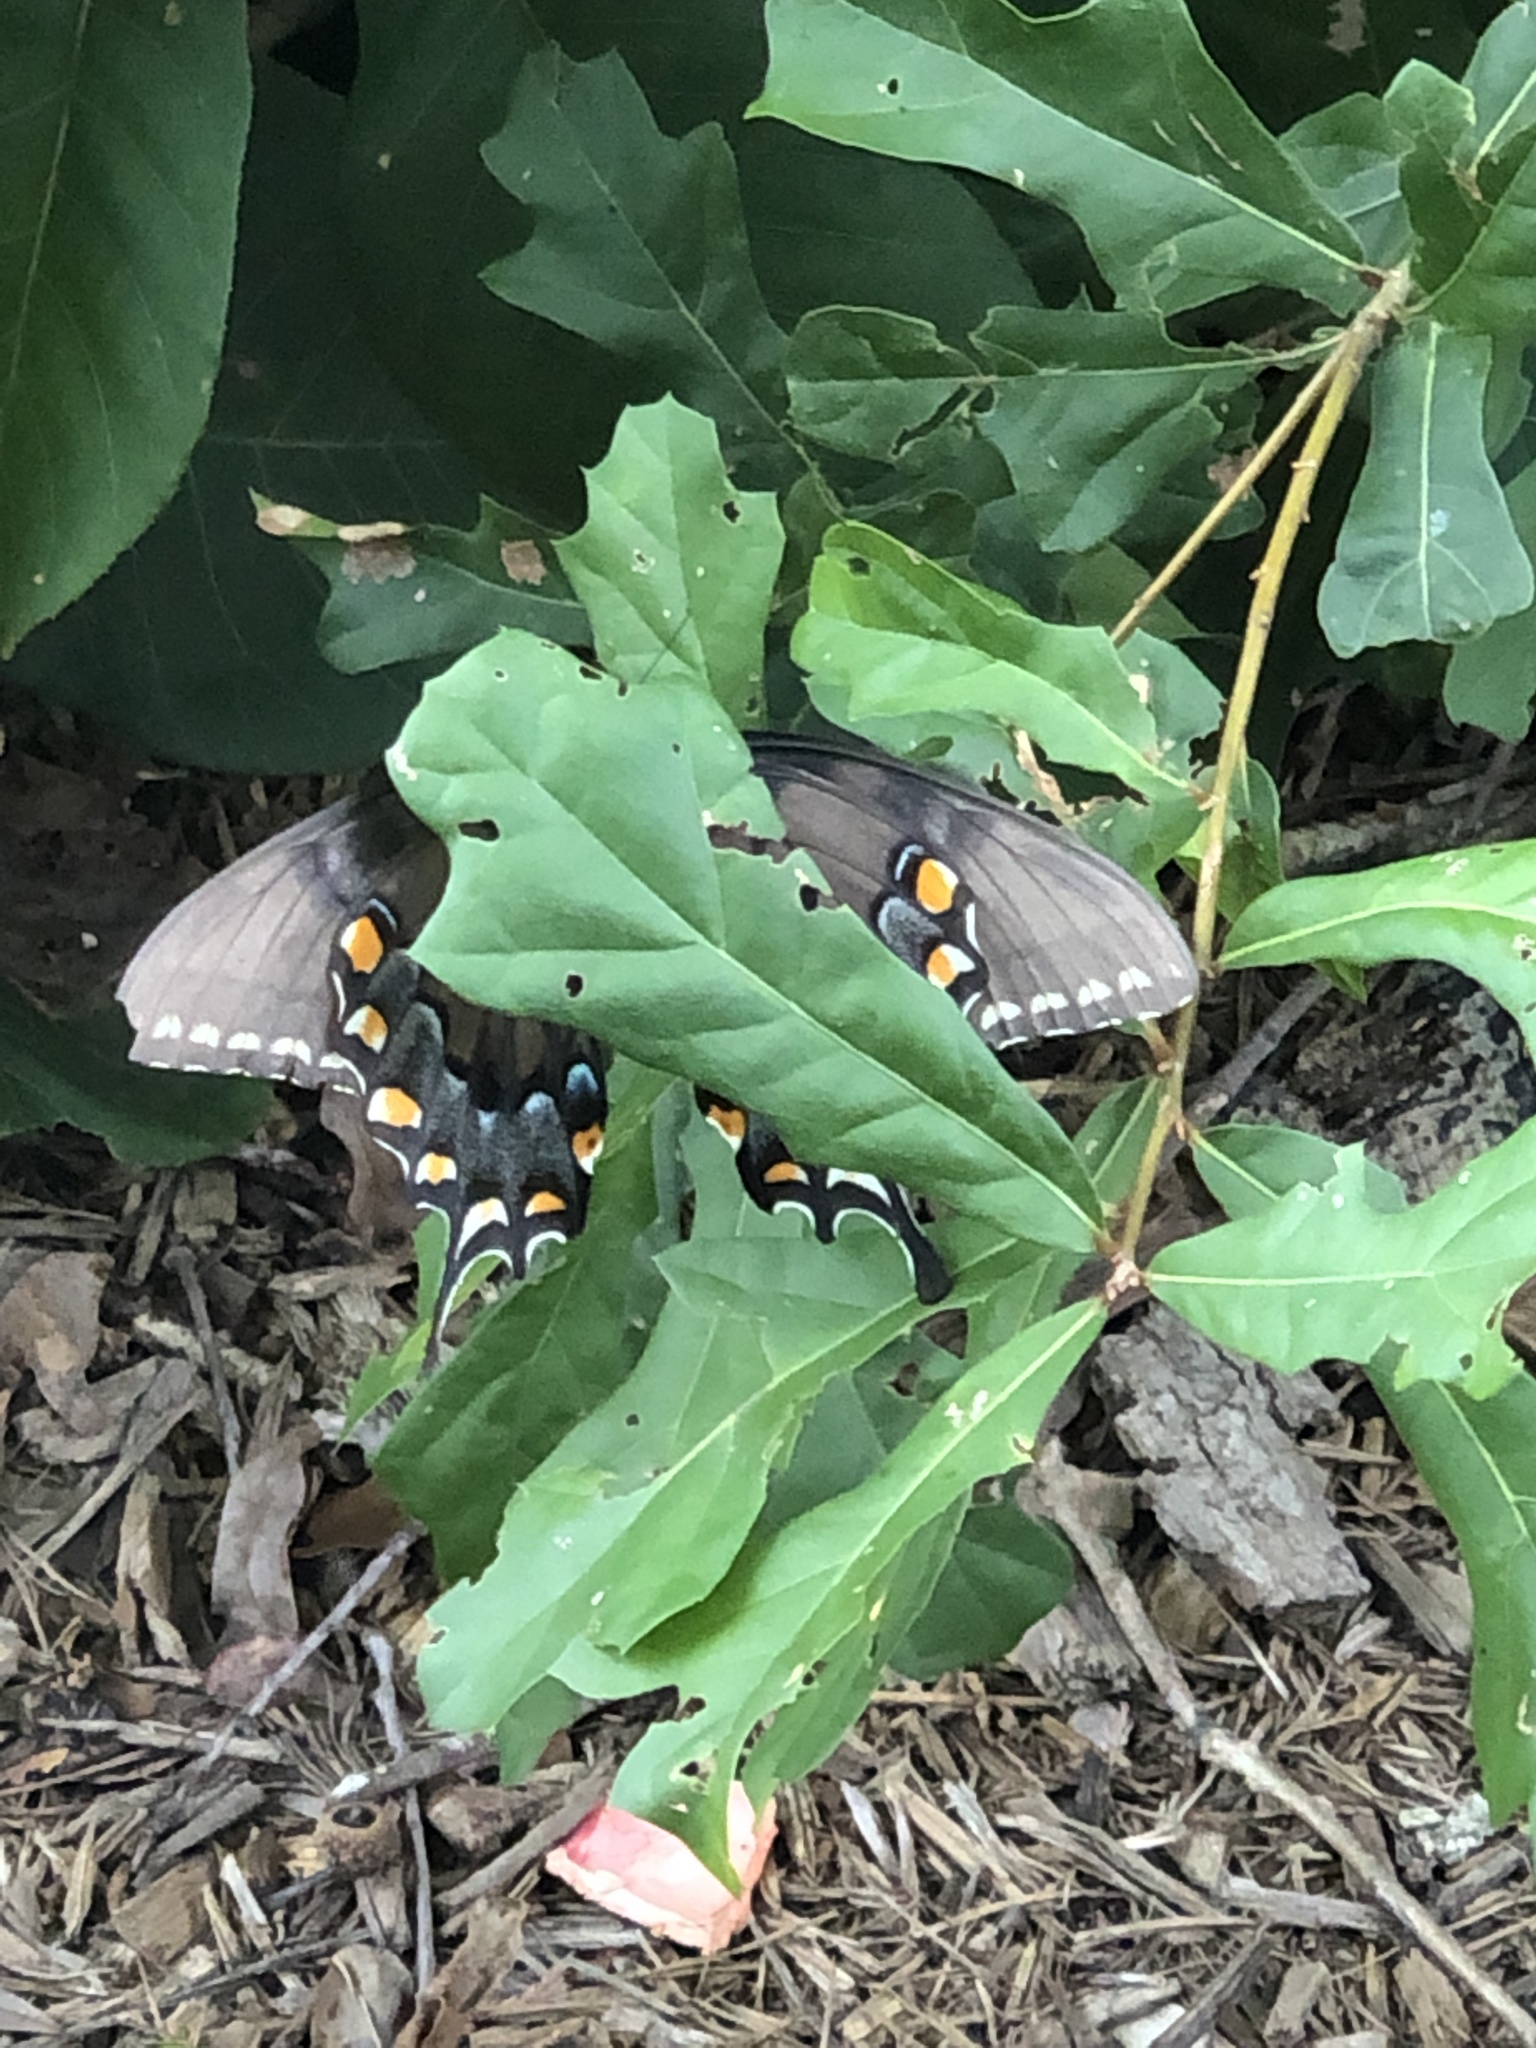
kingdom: Animalia
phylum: Arthropoda
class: Insecta
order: Lepidoptera
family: Papilionidae
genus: Papilio
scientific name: Papilio glaucus
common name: Tiger swallowtail
